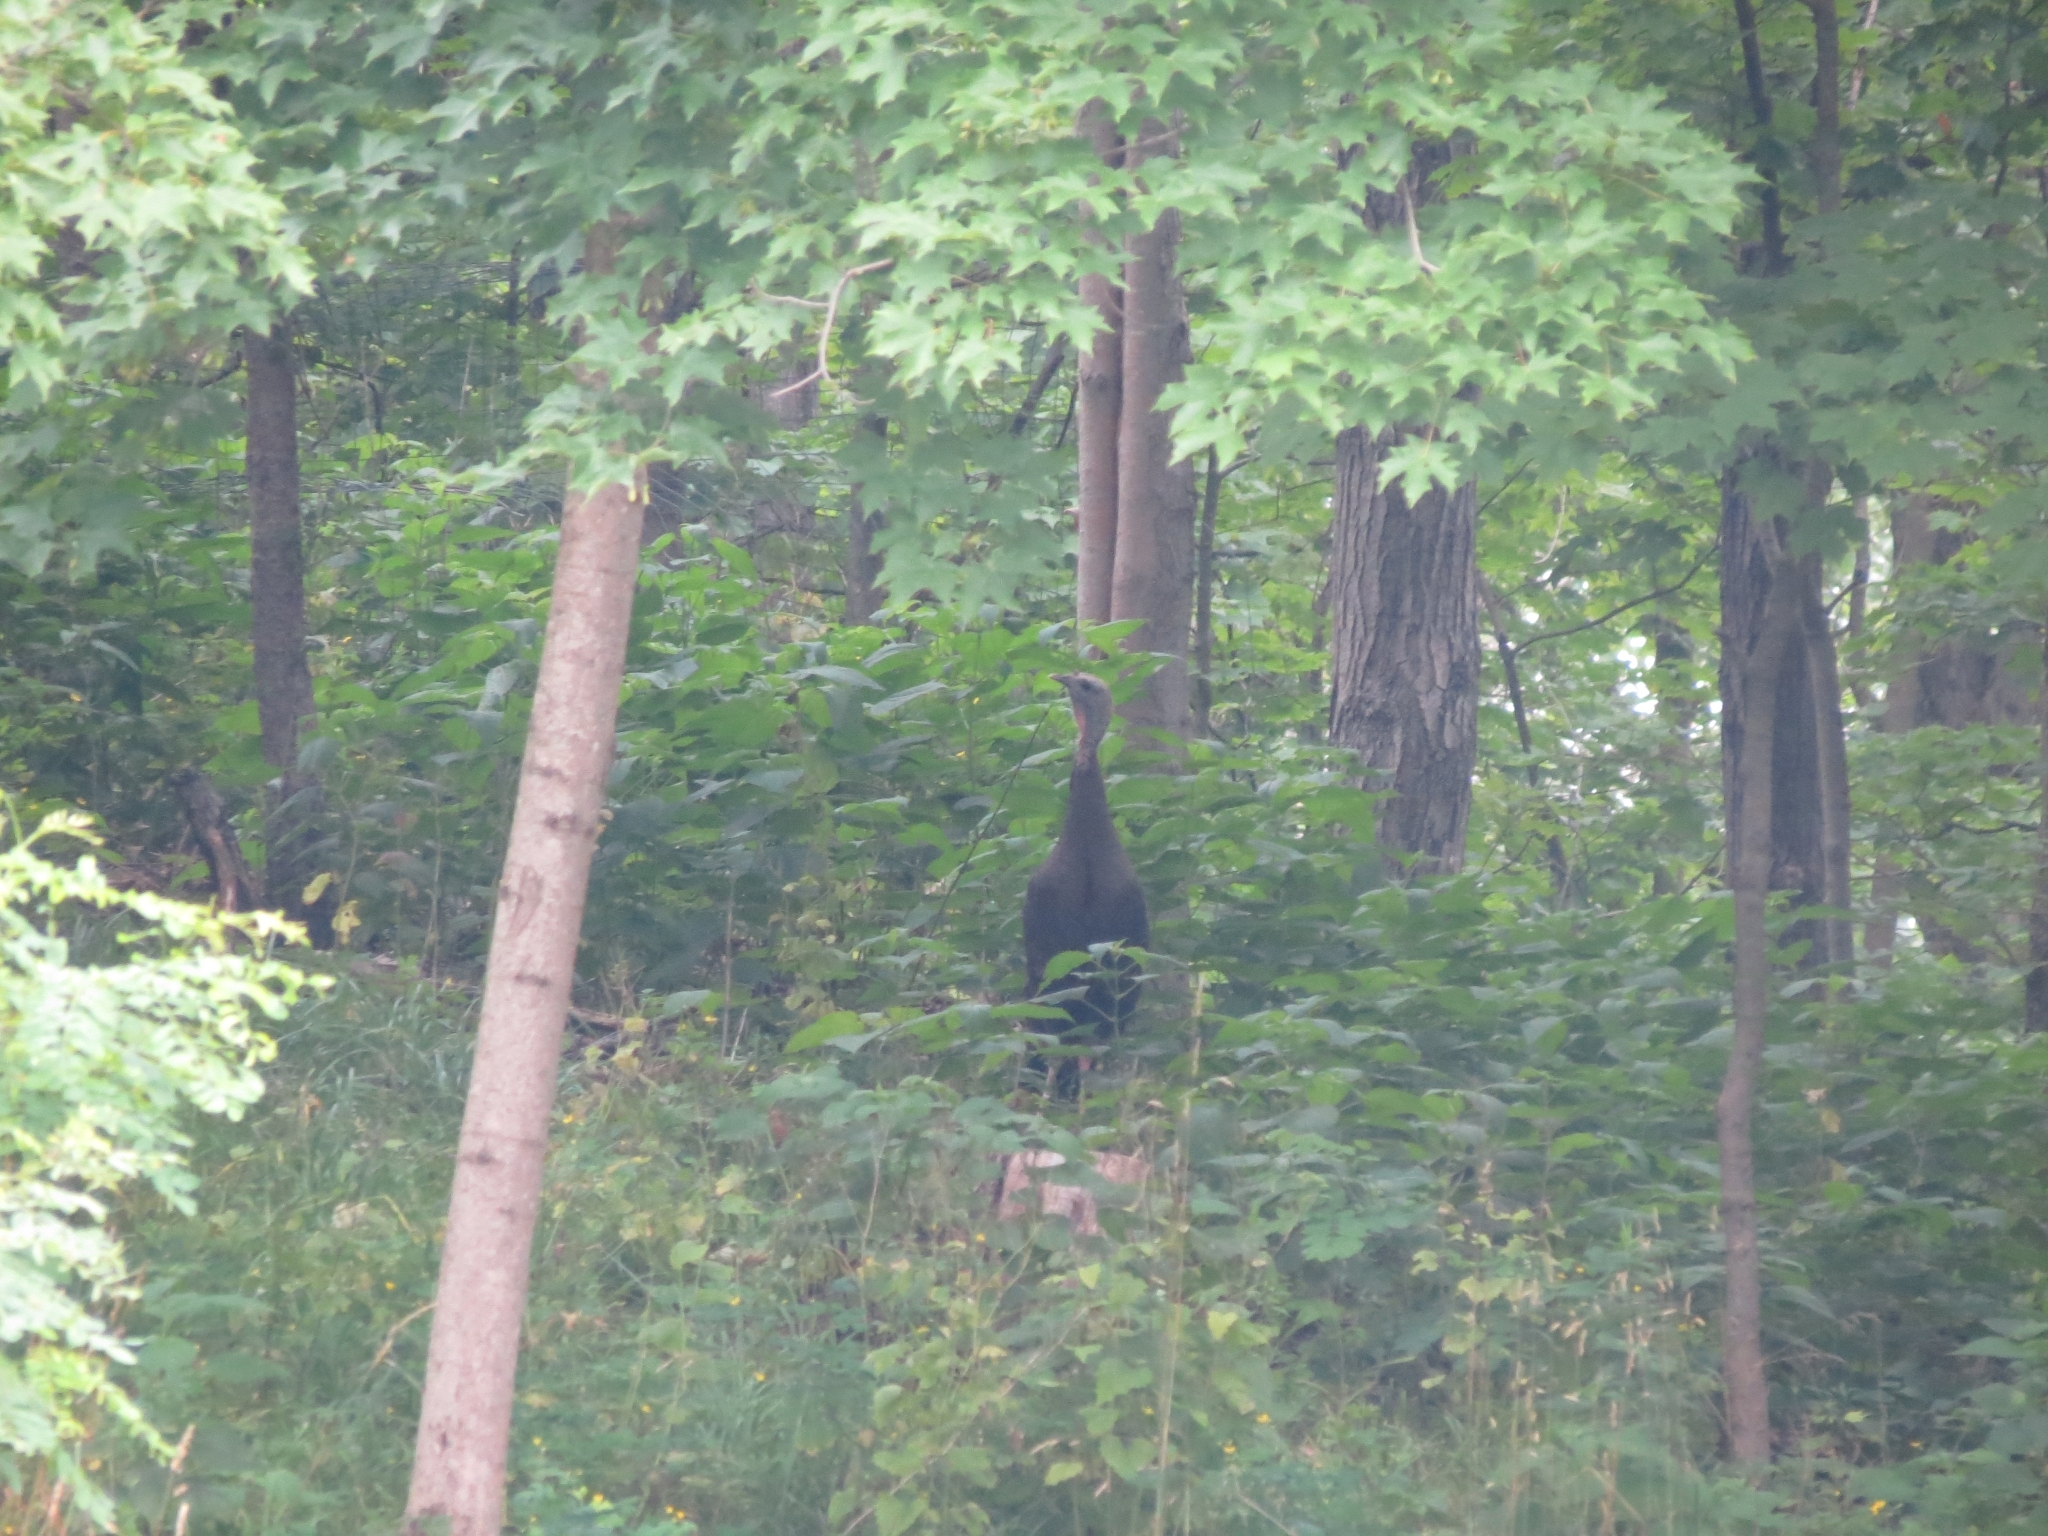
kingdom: Animalia
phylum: Chordata
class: Aves
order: Galliformes
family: Phasianidae
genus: Meleagris
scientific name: Meleagris gallopavo
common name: Wild turkey
